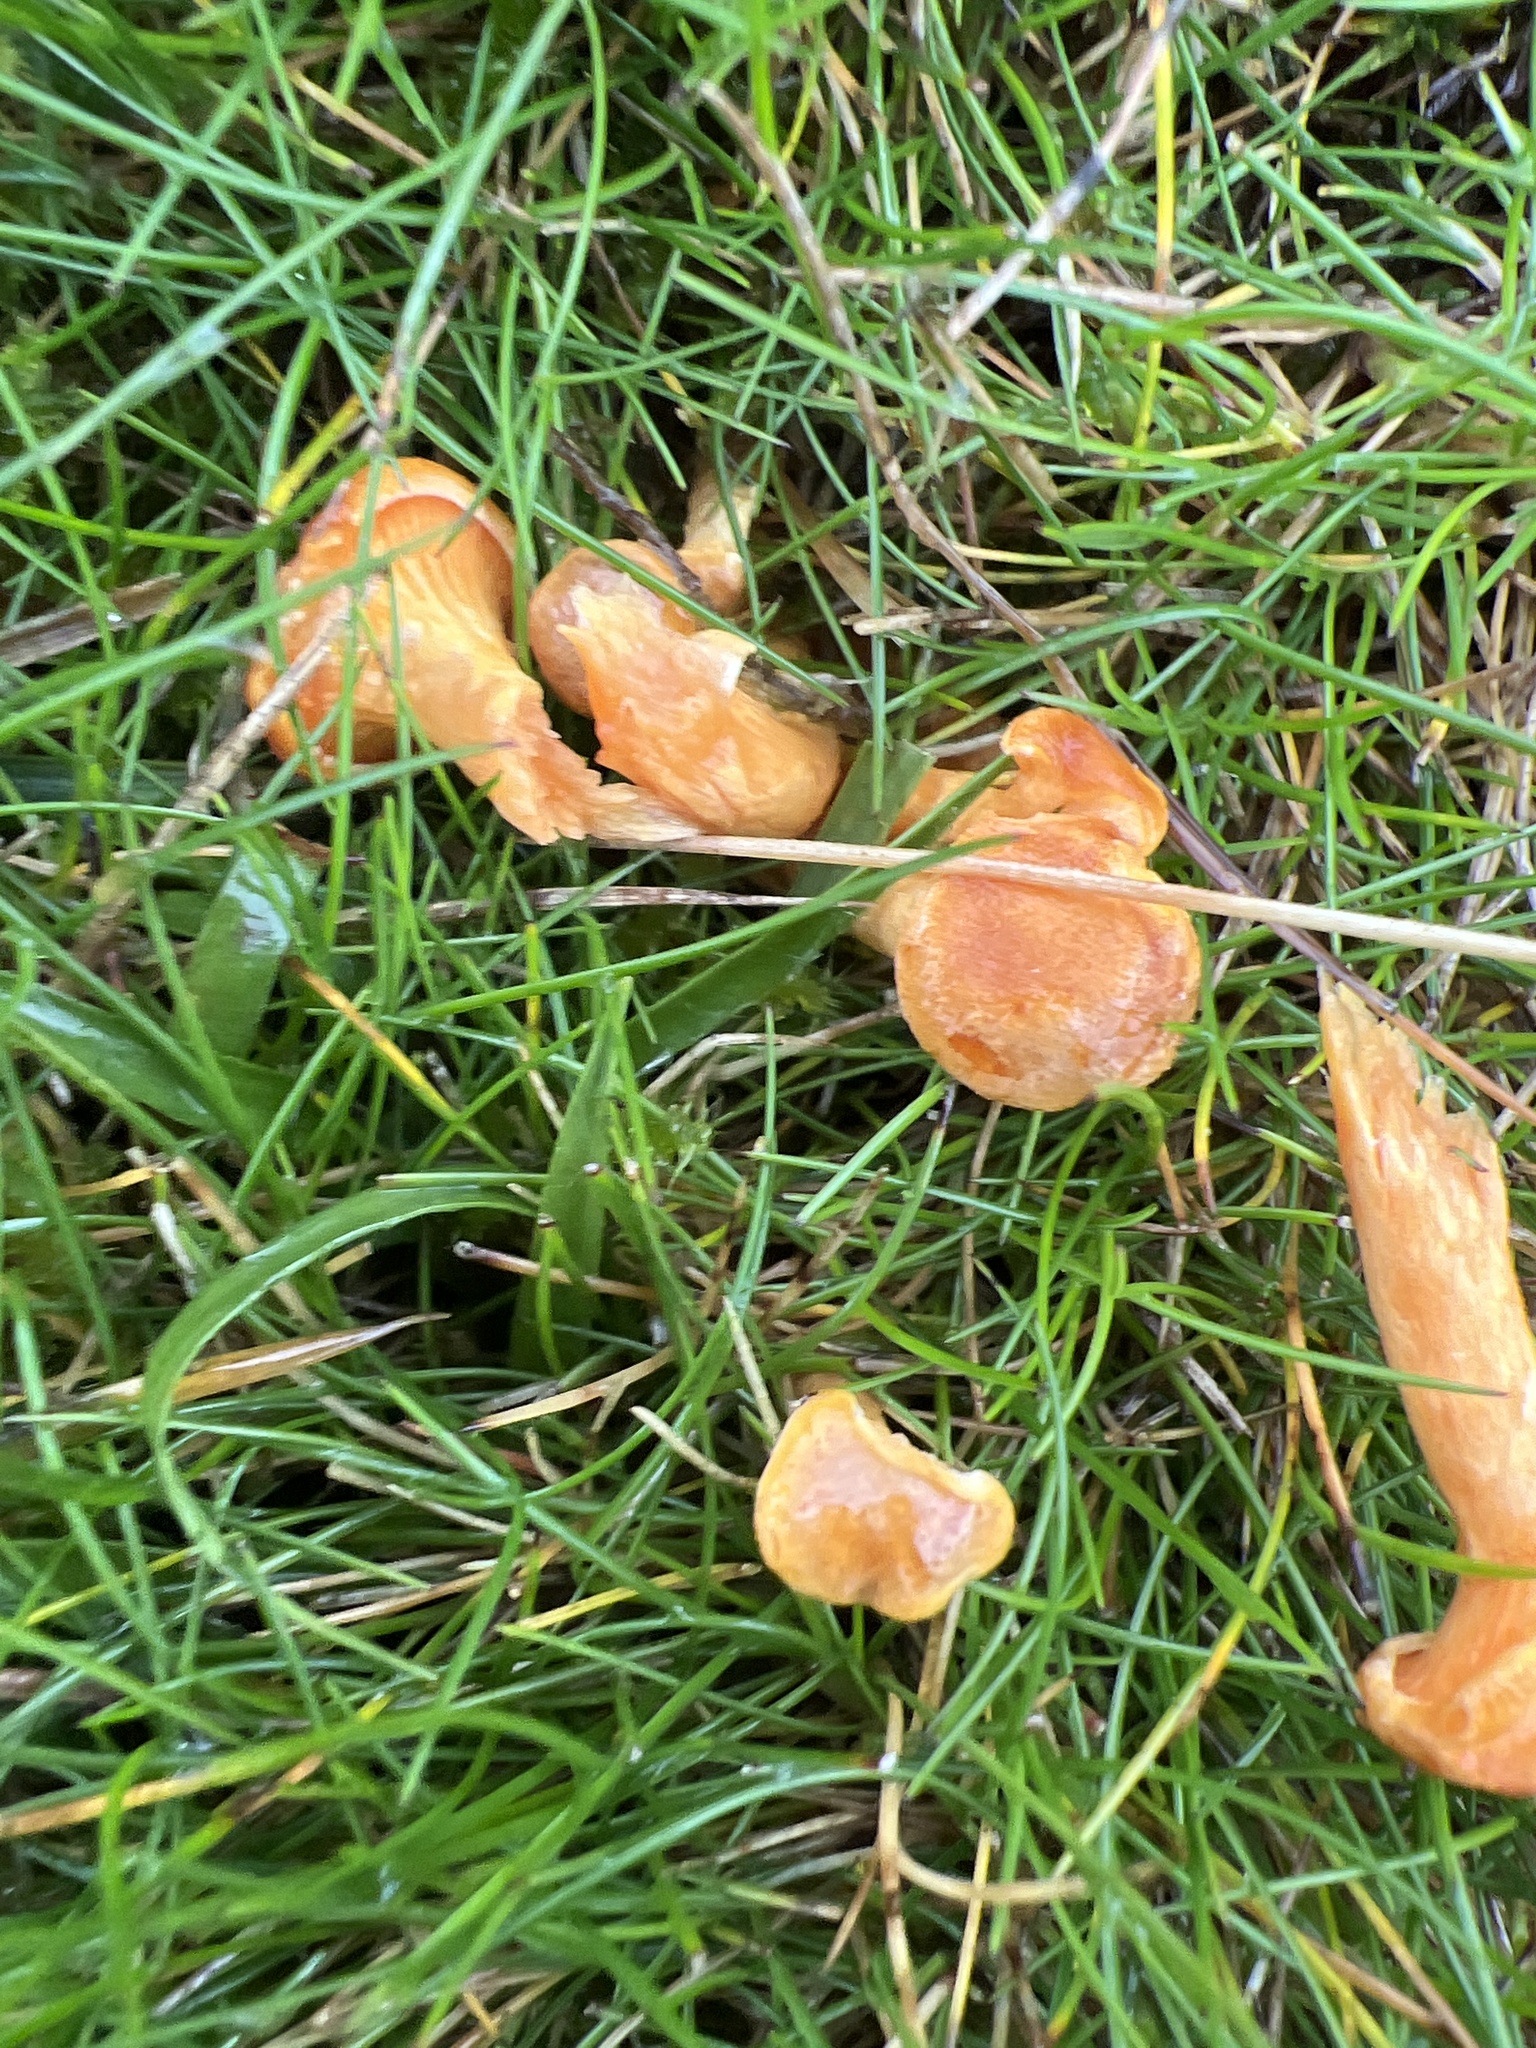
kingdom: Fungi
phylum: Basidiomycota
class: Agaricomycetes
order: Boletales
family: Hygrophoropsidaceae
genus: Hygrophoropsis
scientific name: Hygrophoropsis aurantiaca
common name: False chanterelle
